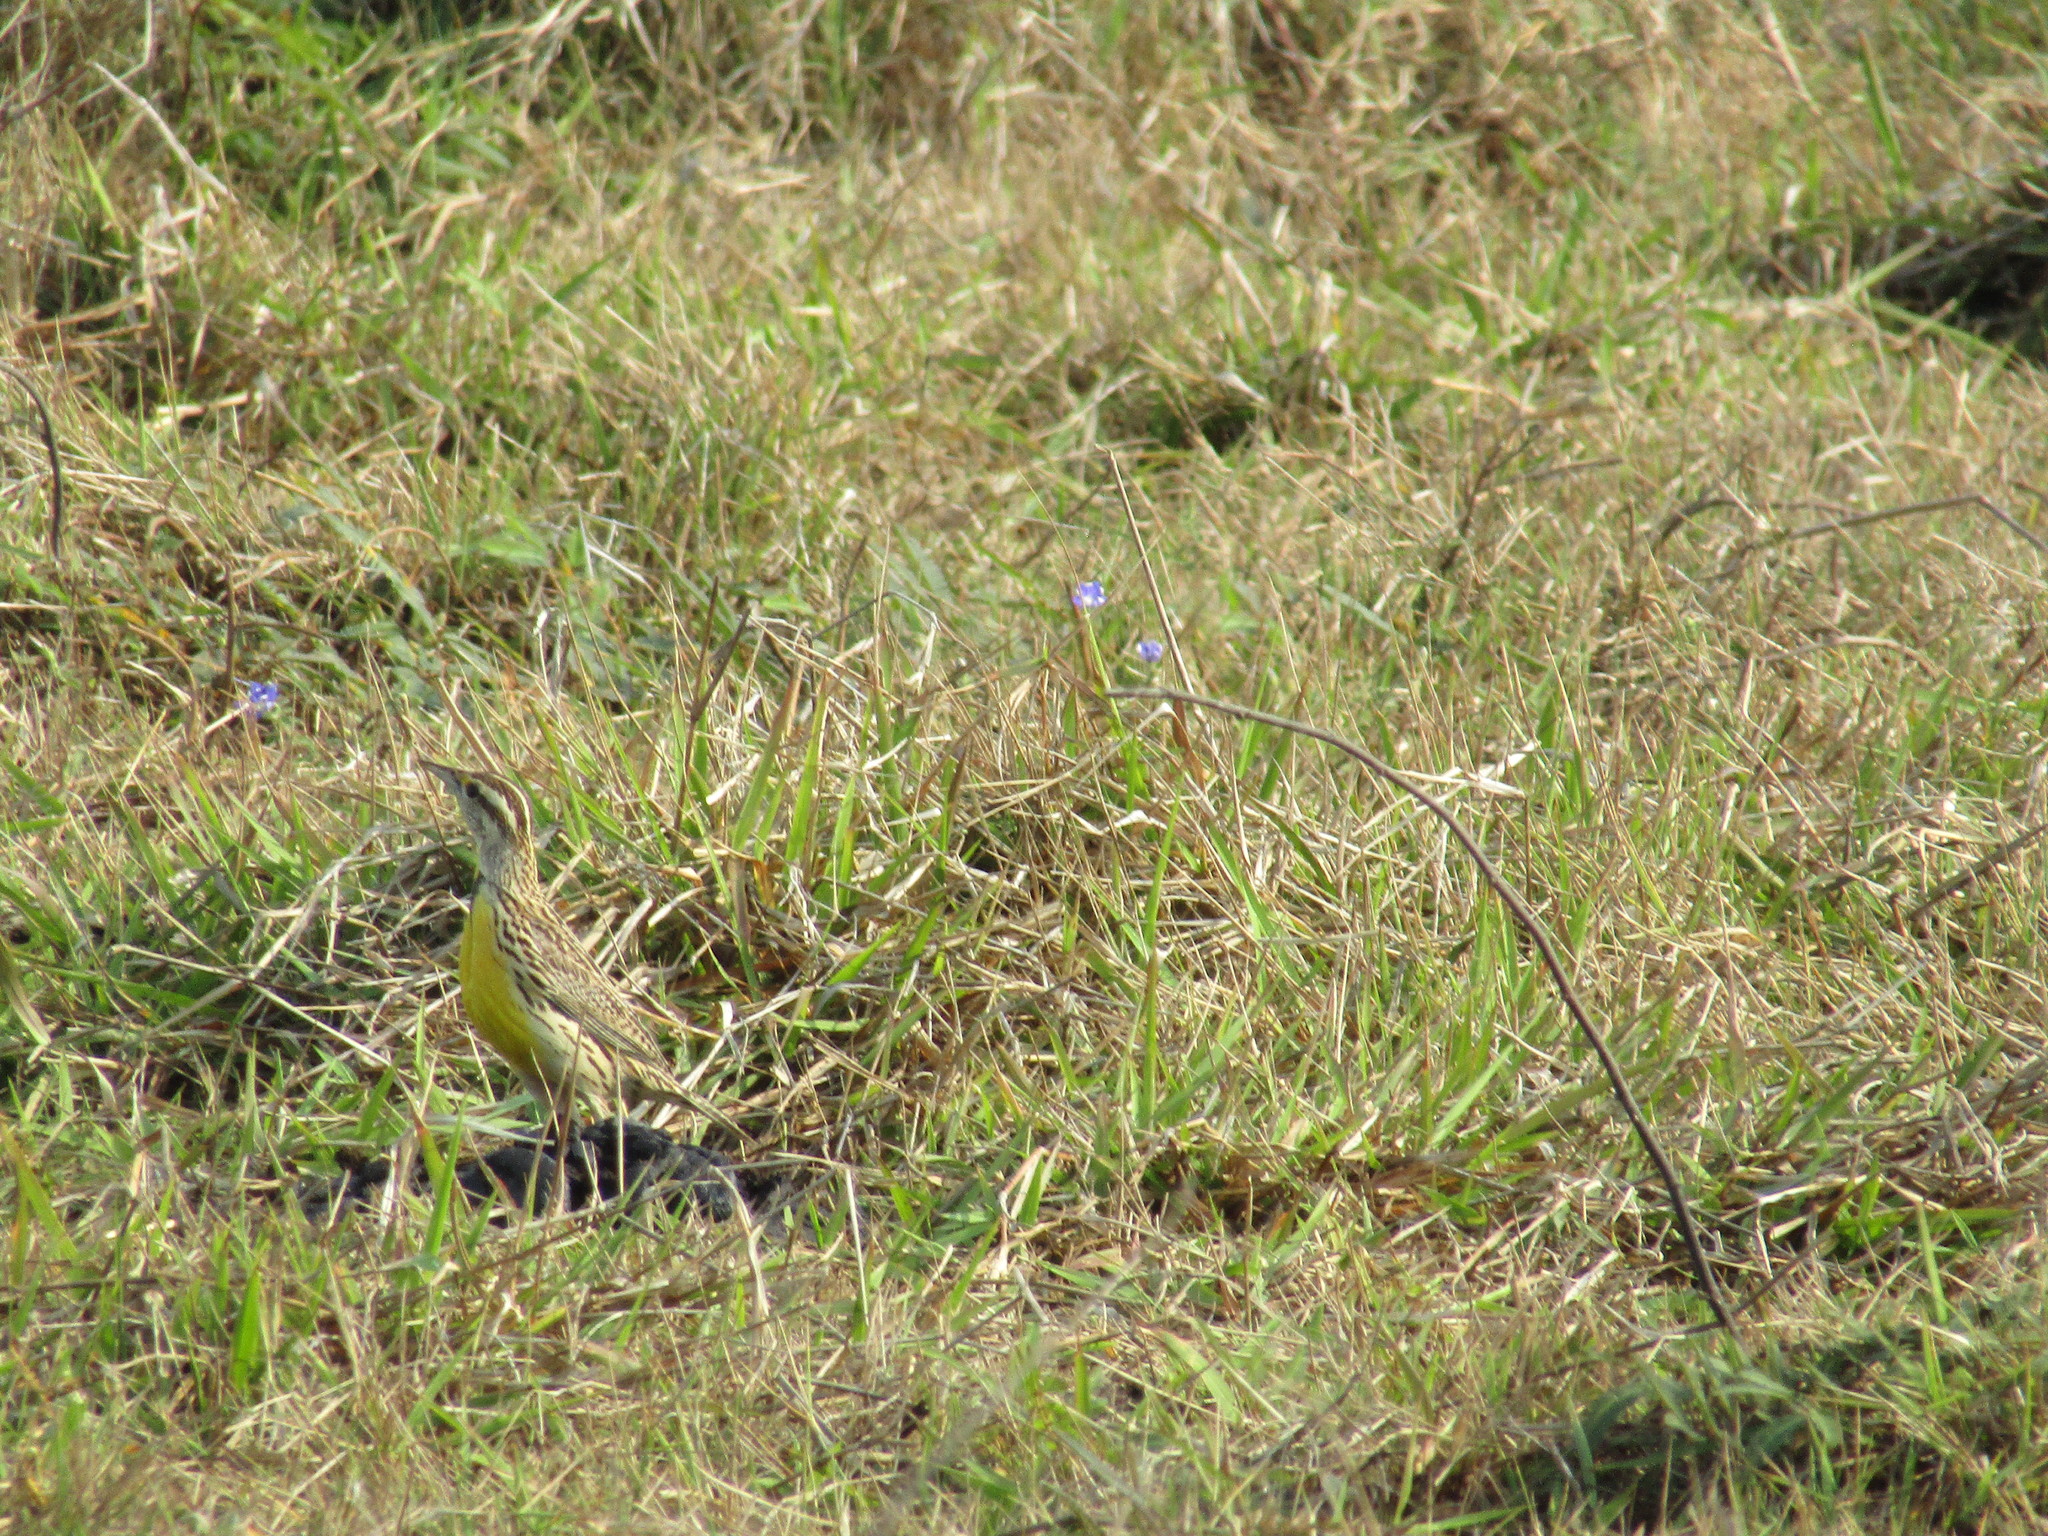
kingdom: Animalia
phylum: Chordata
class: Aves
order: Passeriformes
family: Icteridae
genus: Sturnella
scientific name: Sturnella magna
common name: Eastern meadowlark
